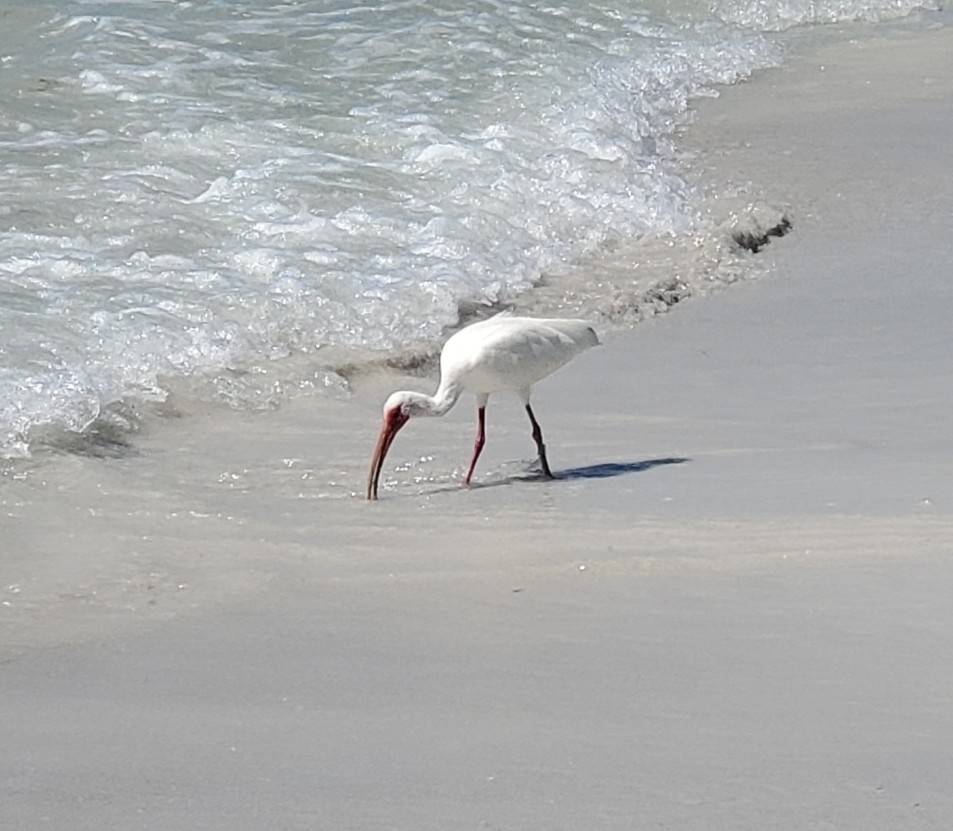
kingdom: Animalia
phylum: Chordata
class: Aves
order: Pelecaniformes
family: Threskiornithidae
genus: Eudocimus
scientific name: Eudocimus albus
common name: White ibis
